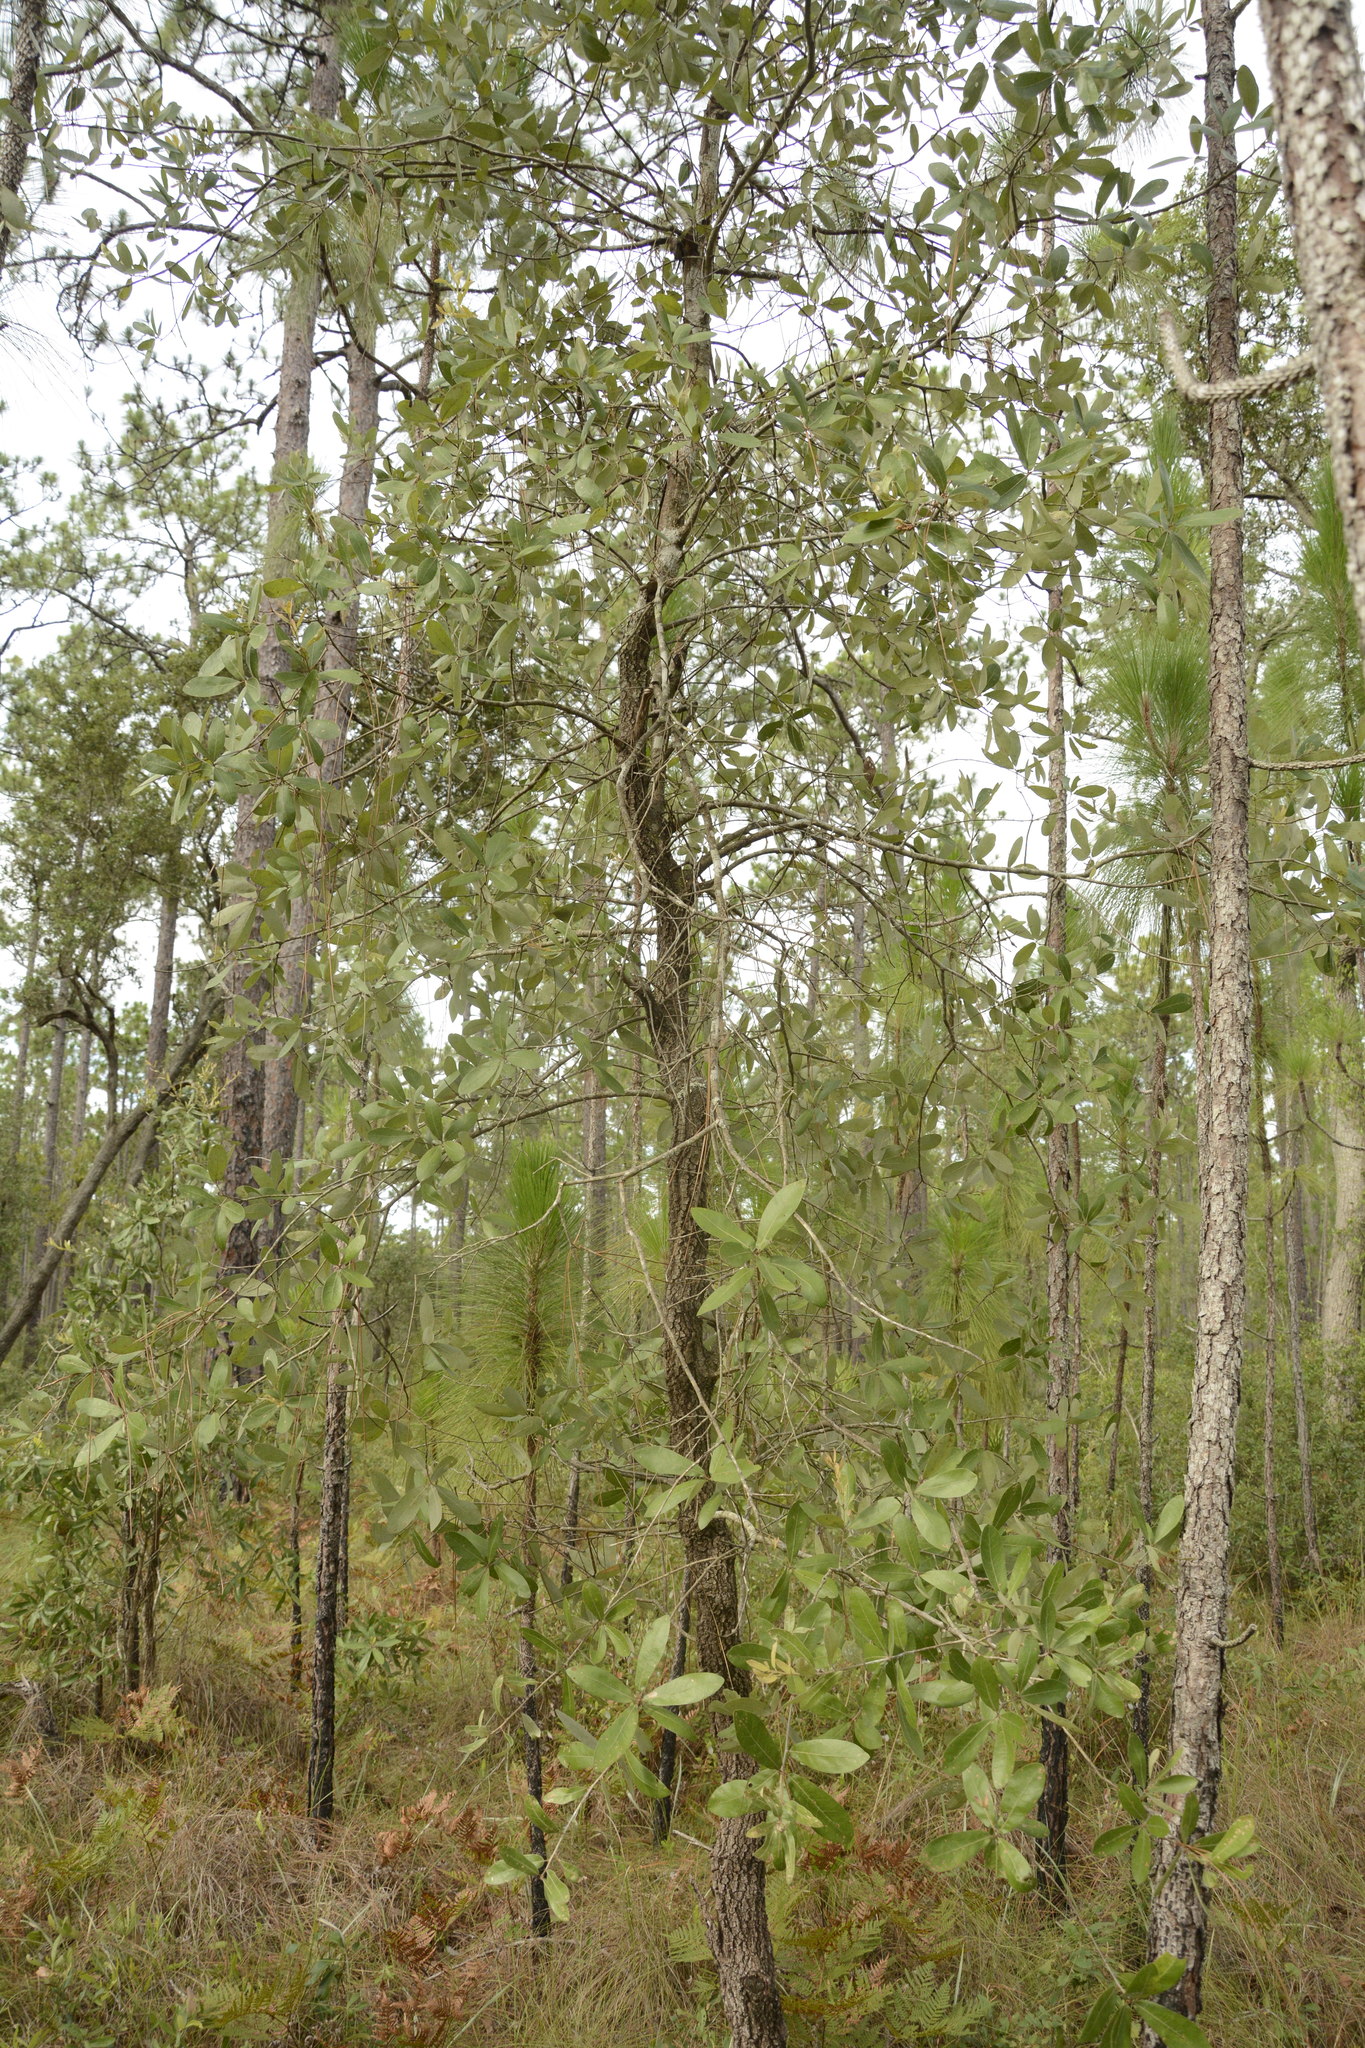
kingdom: Plantae
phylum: Tracheophyta
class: Magnoliopsida
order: Fagales
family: Fagaceae
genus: Quercus
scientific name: Quercus incana
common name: Bluejack oak
